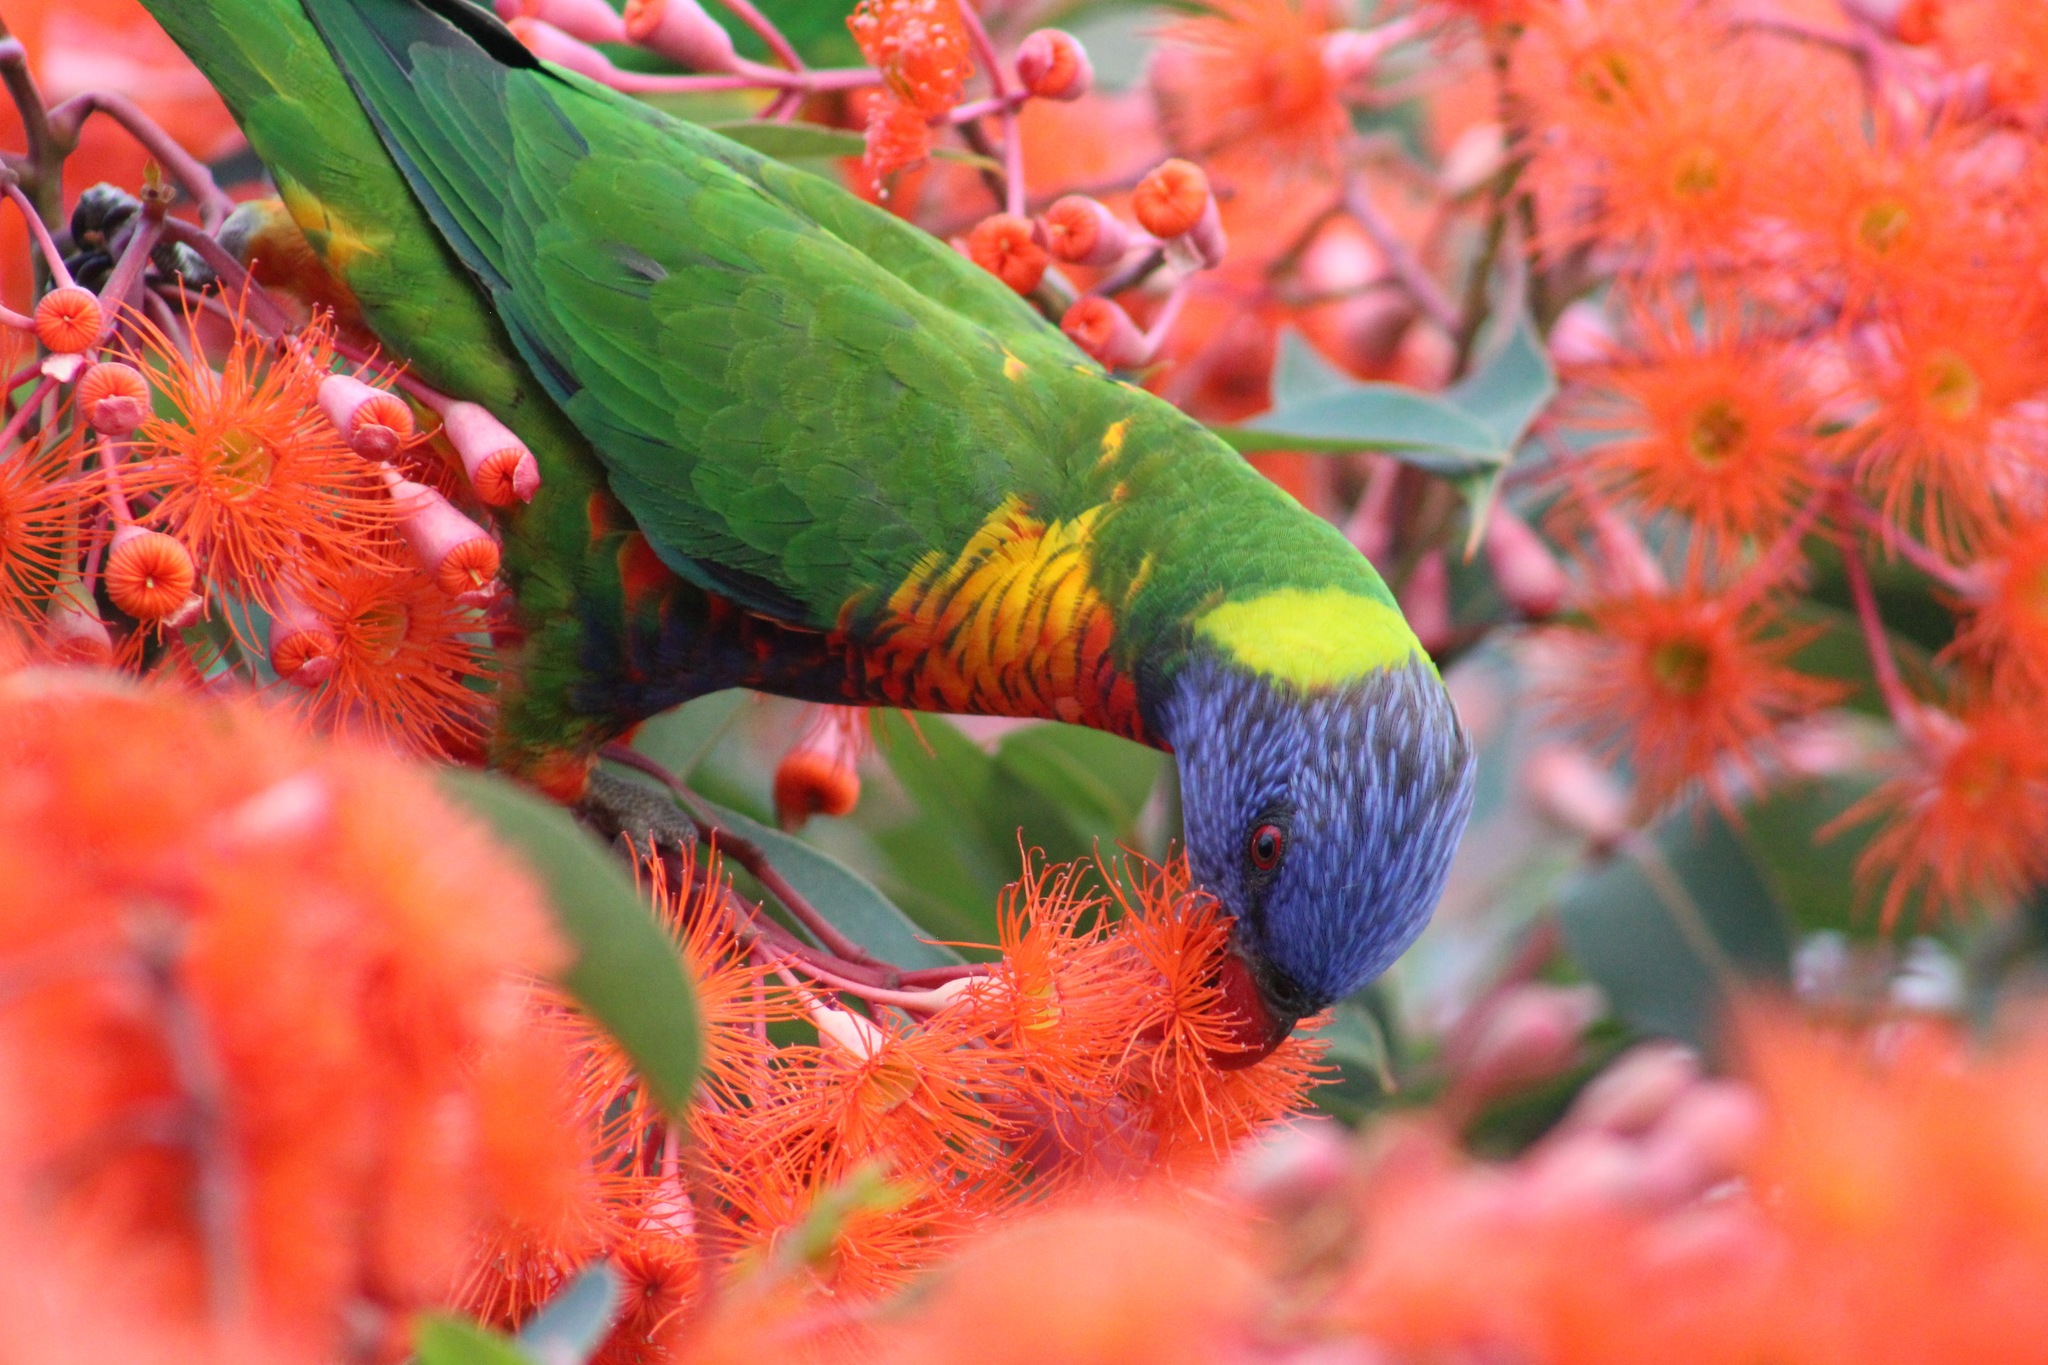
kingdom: Animalia
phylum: Chordata
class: Aves
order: Psittaciformes
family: Psittacidae
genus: Trichoglossus
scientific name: Trichoglossus haematodus
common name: Coconut lorikeet
